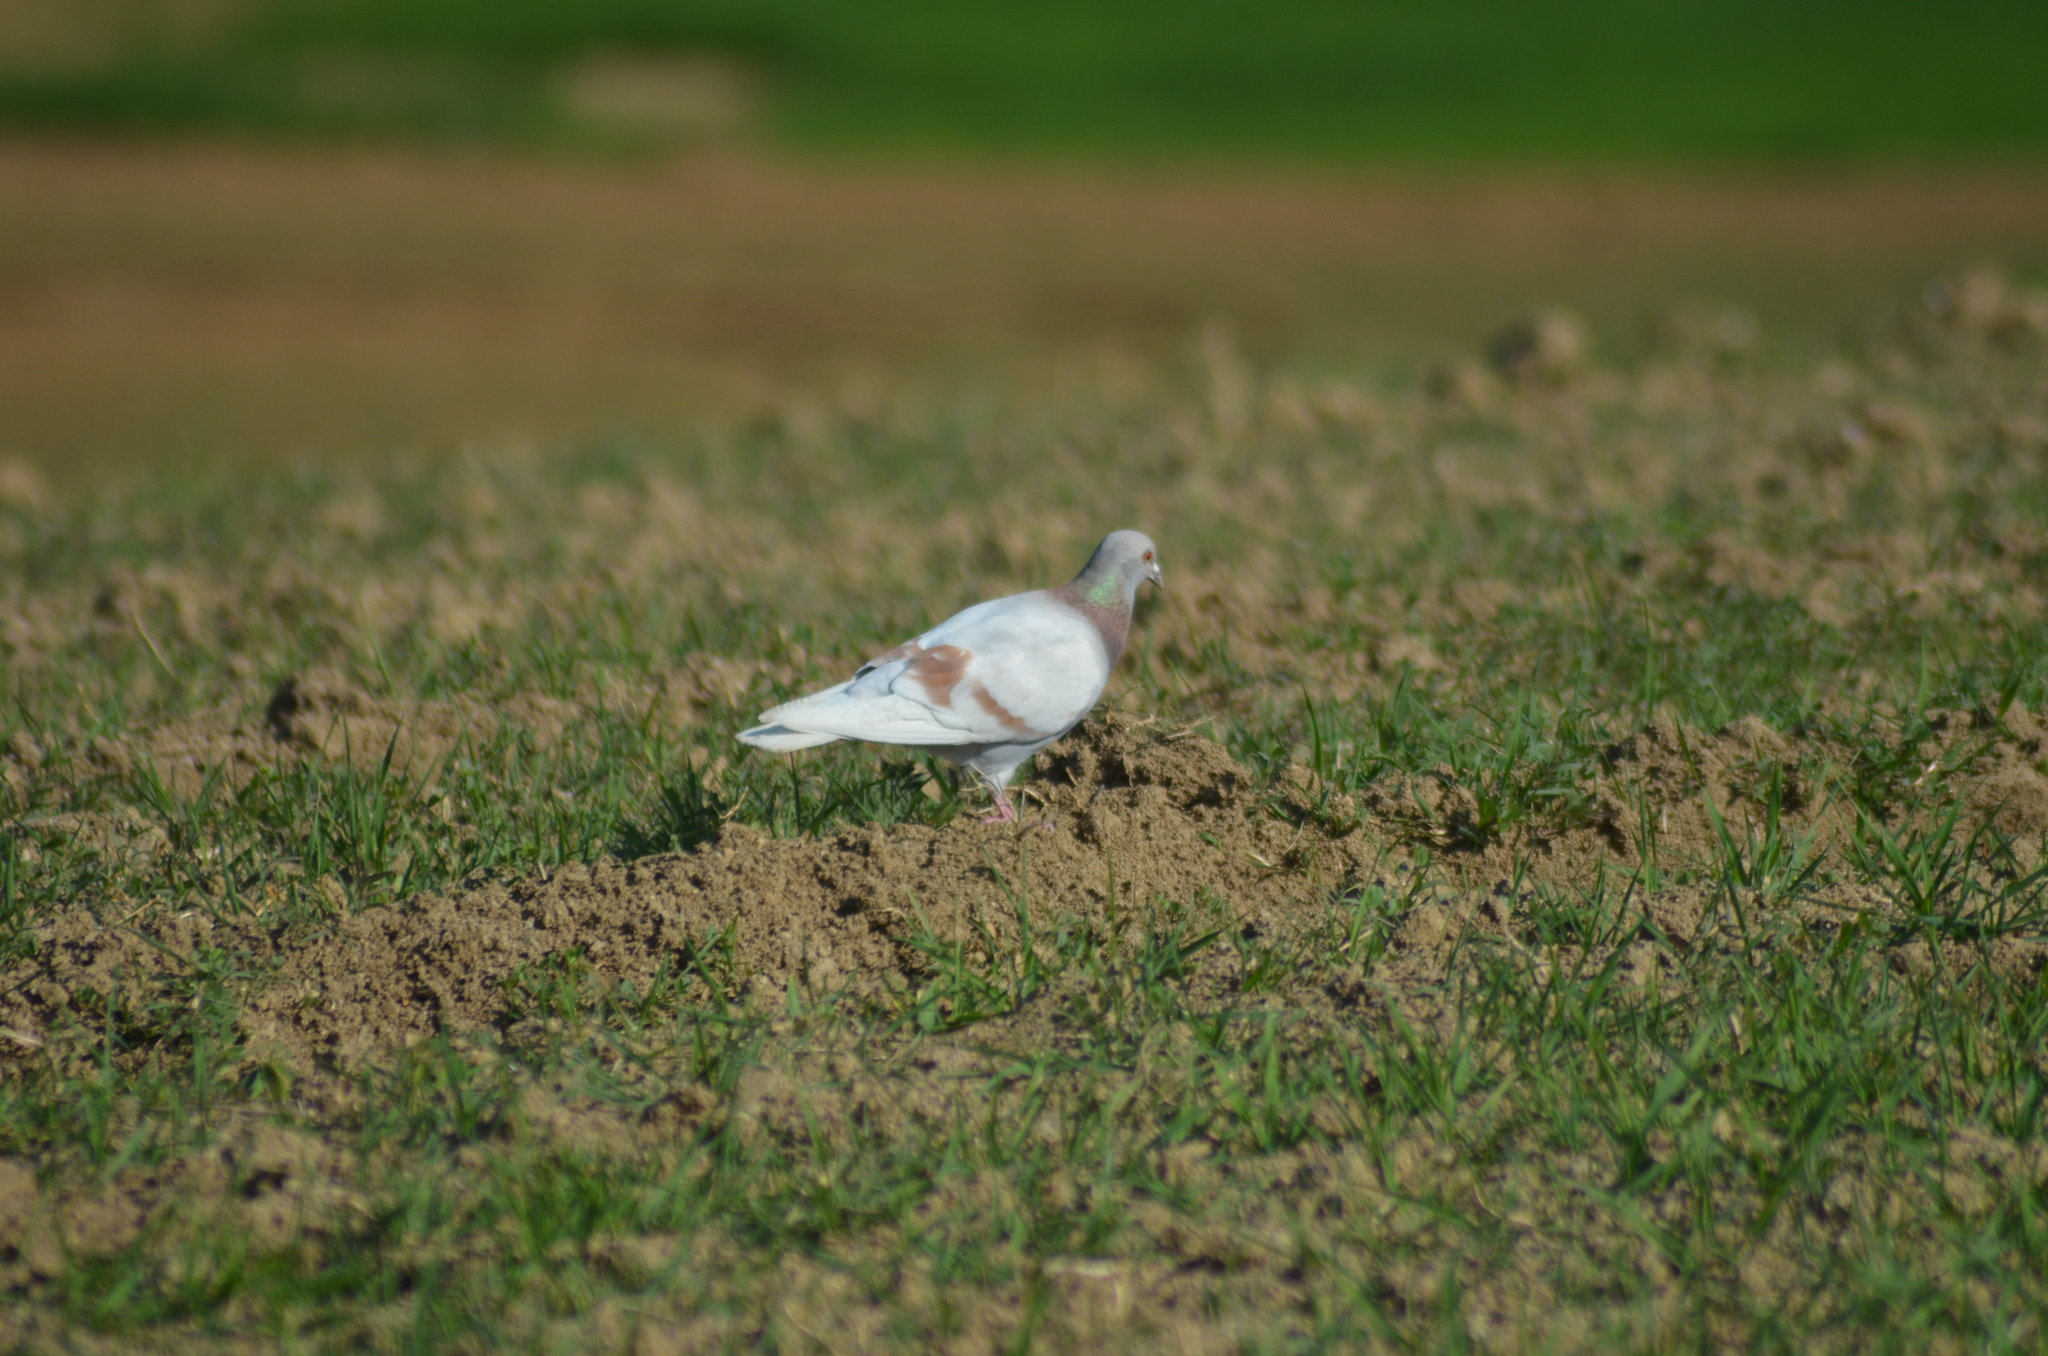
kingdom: Animalia
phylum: Chordata
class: Aves
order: Columbiformes
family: Columbidae
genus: Columba
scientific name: Columba livia
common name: Rock pigeon
